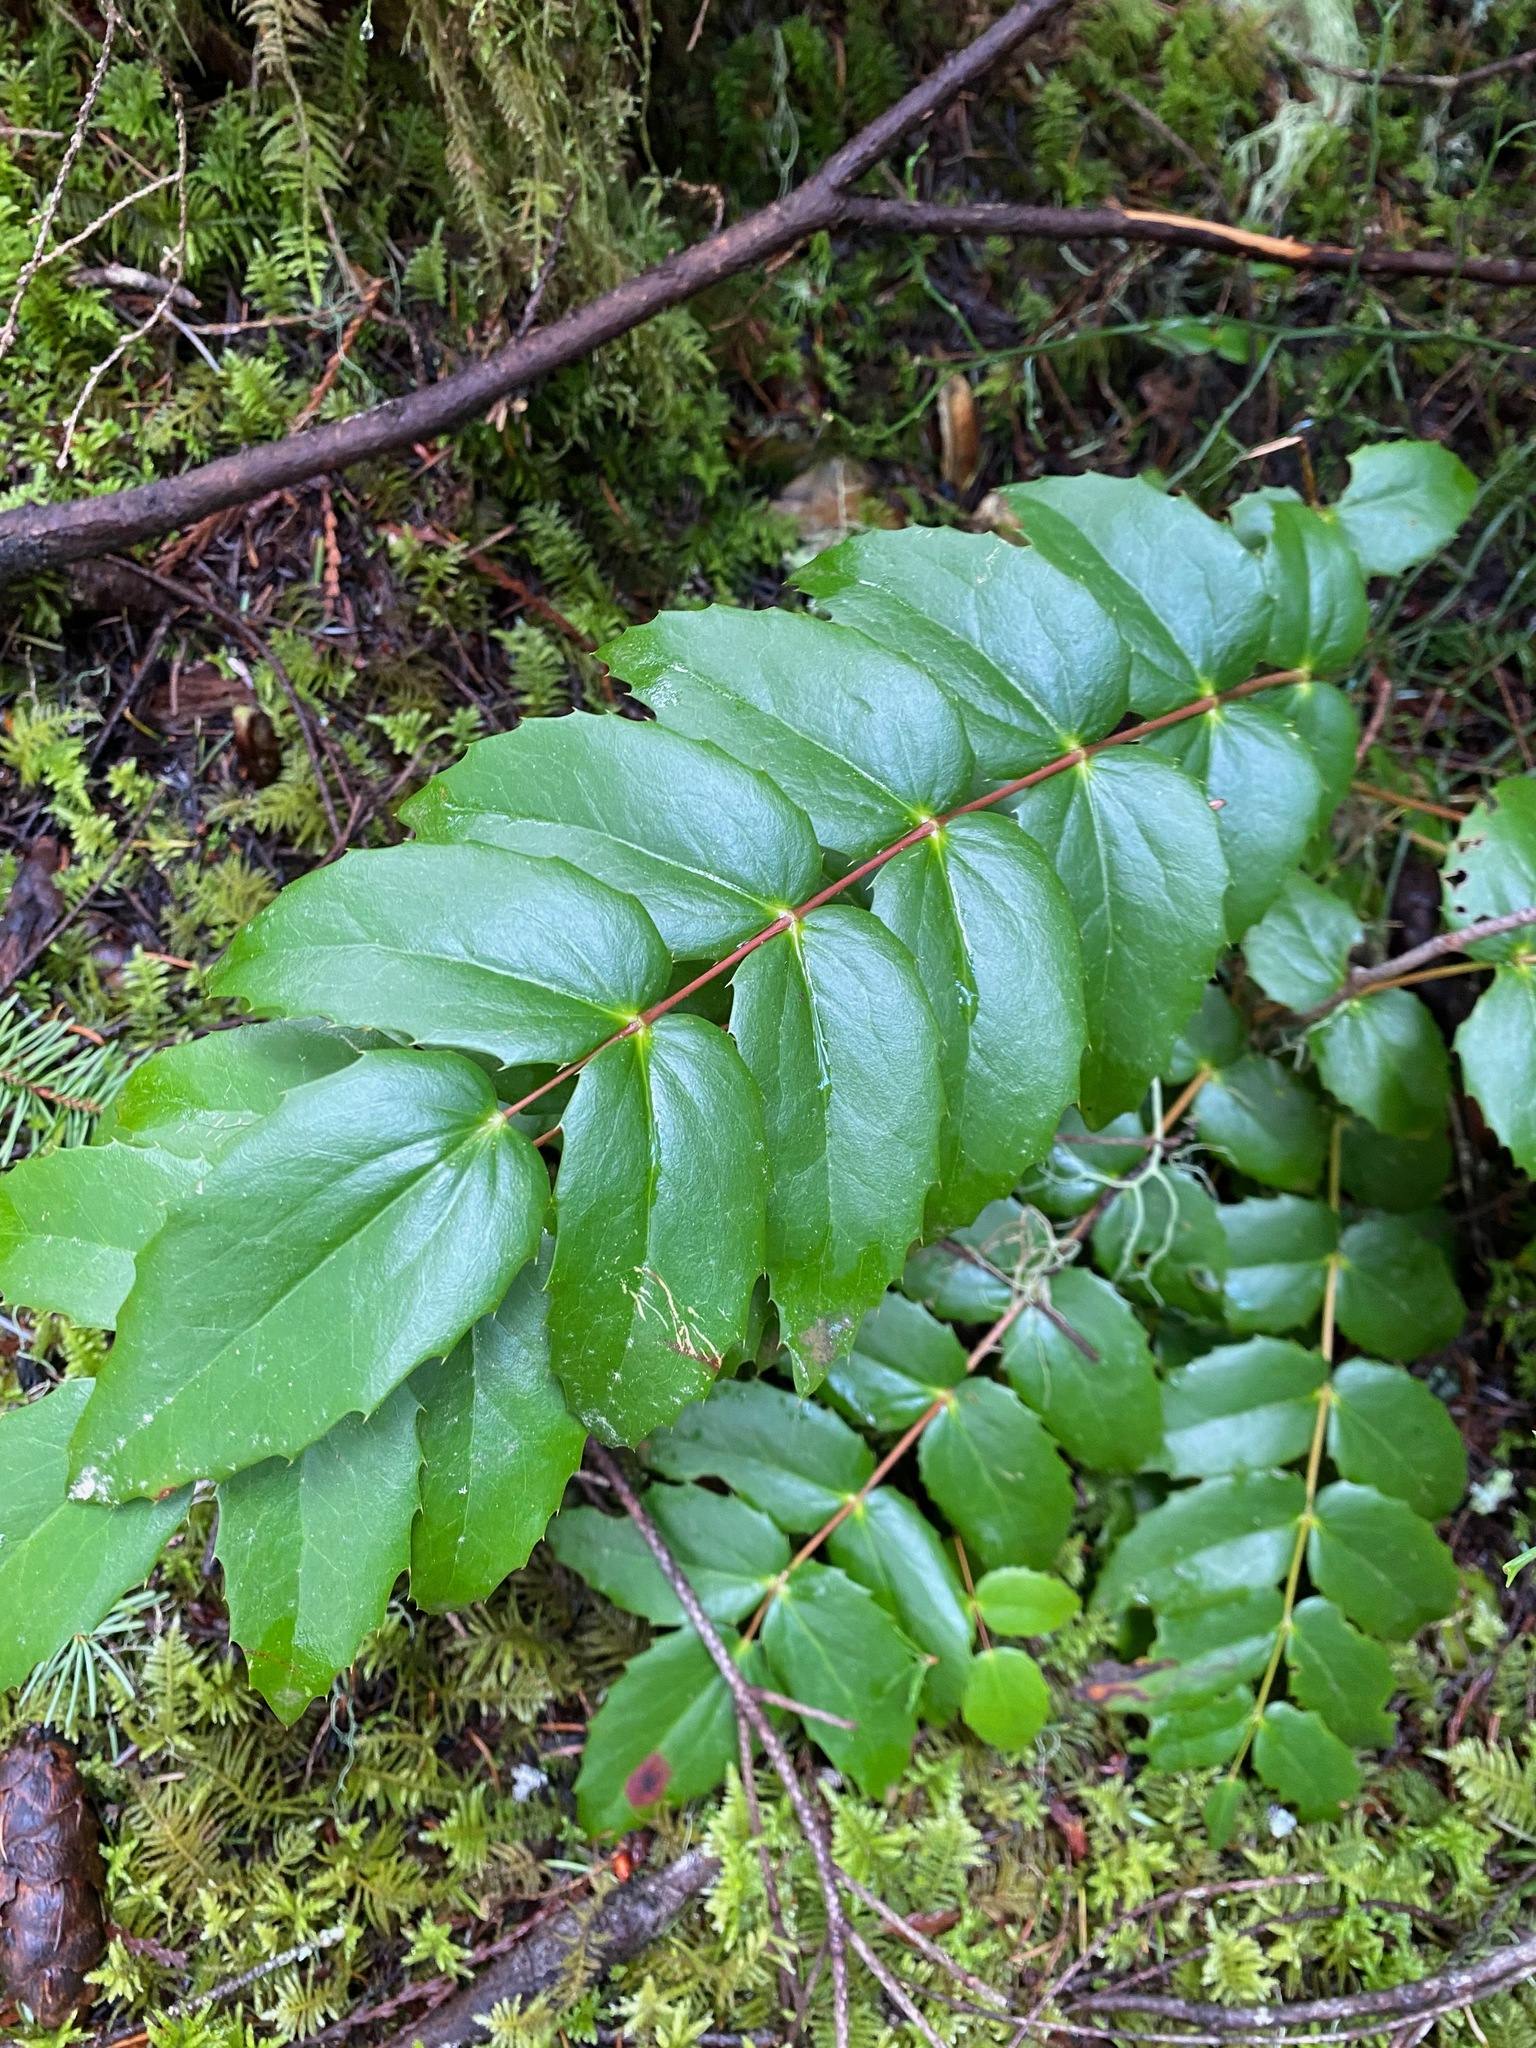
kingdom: Plantae
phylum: Tracheophyta
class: Magnoliopsida
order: Ranunculales
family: Berberidaceae
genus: Mahonia
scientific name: Mahonia nervosa
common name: Cascade oregon-grape
